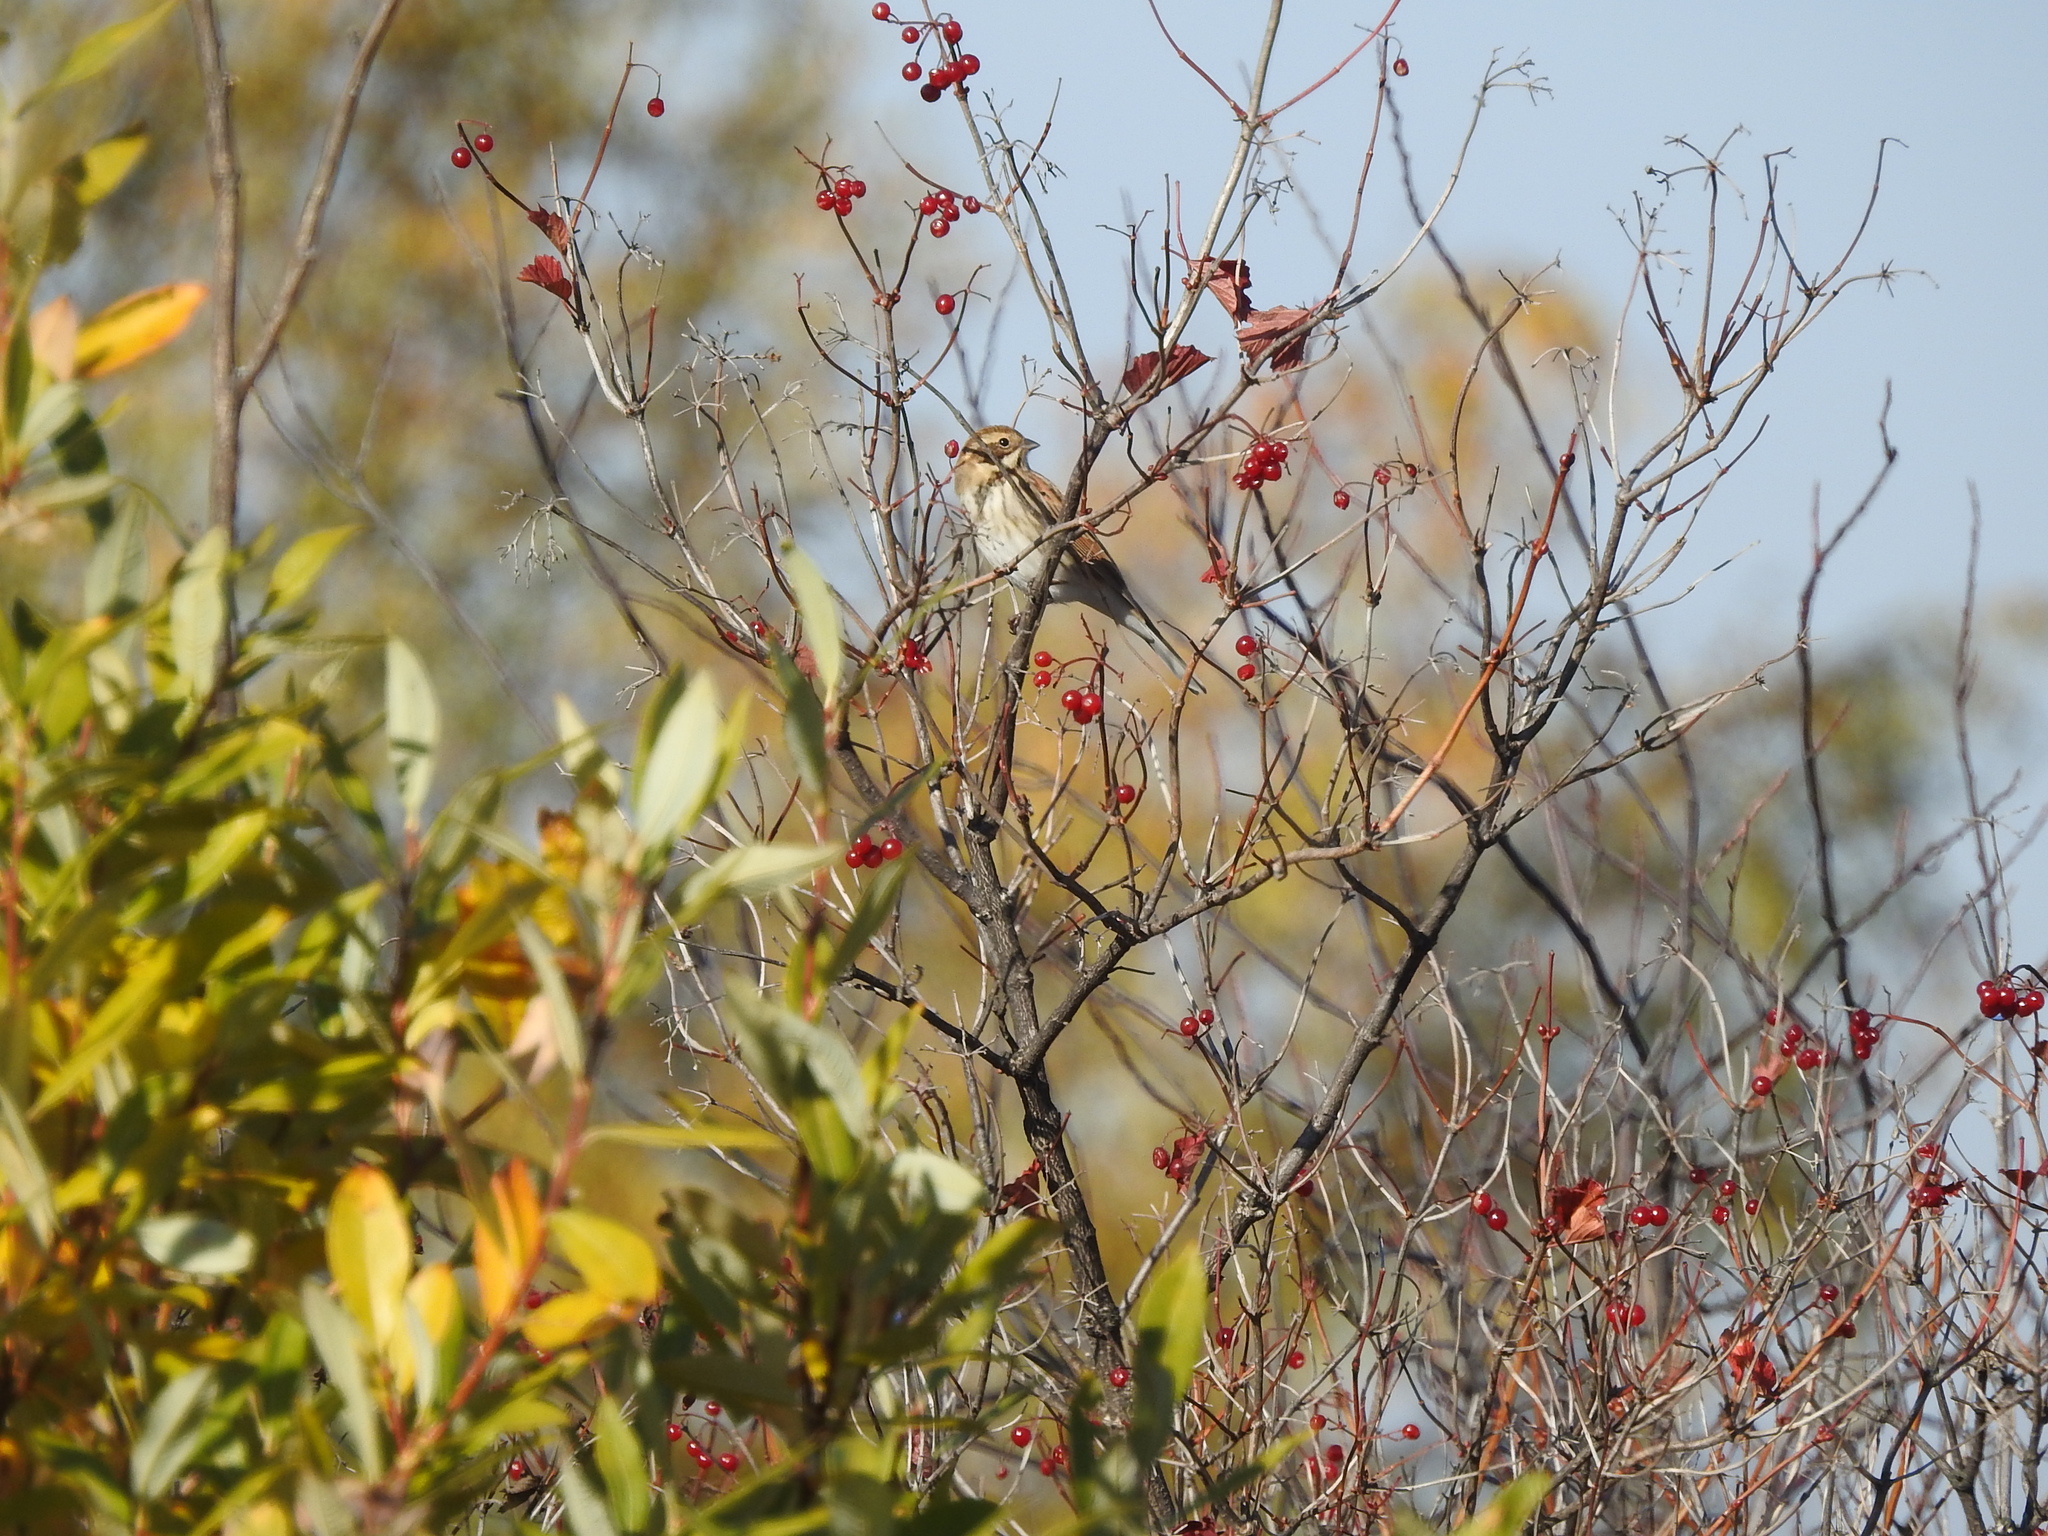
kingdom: Animalia
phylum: Chordata
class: Aves
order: Passeriformes
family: Emberizidae
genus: Emberiza
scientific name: Emberiza schoeniclus
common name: Reed bunting
